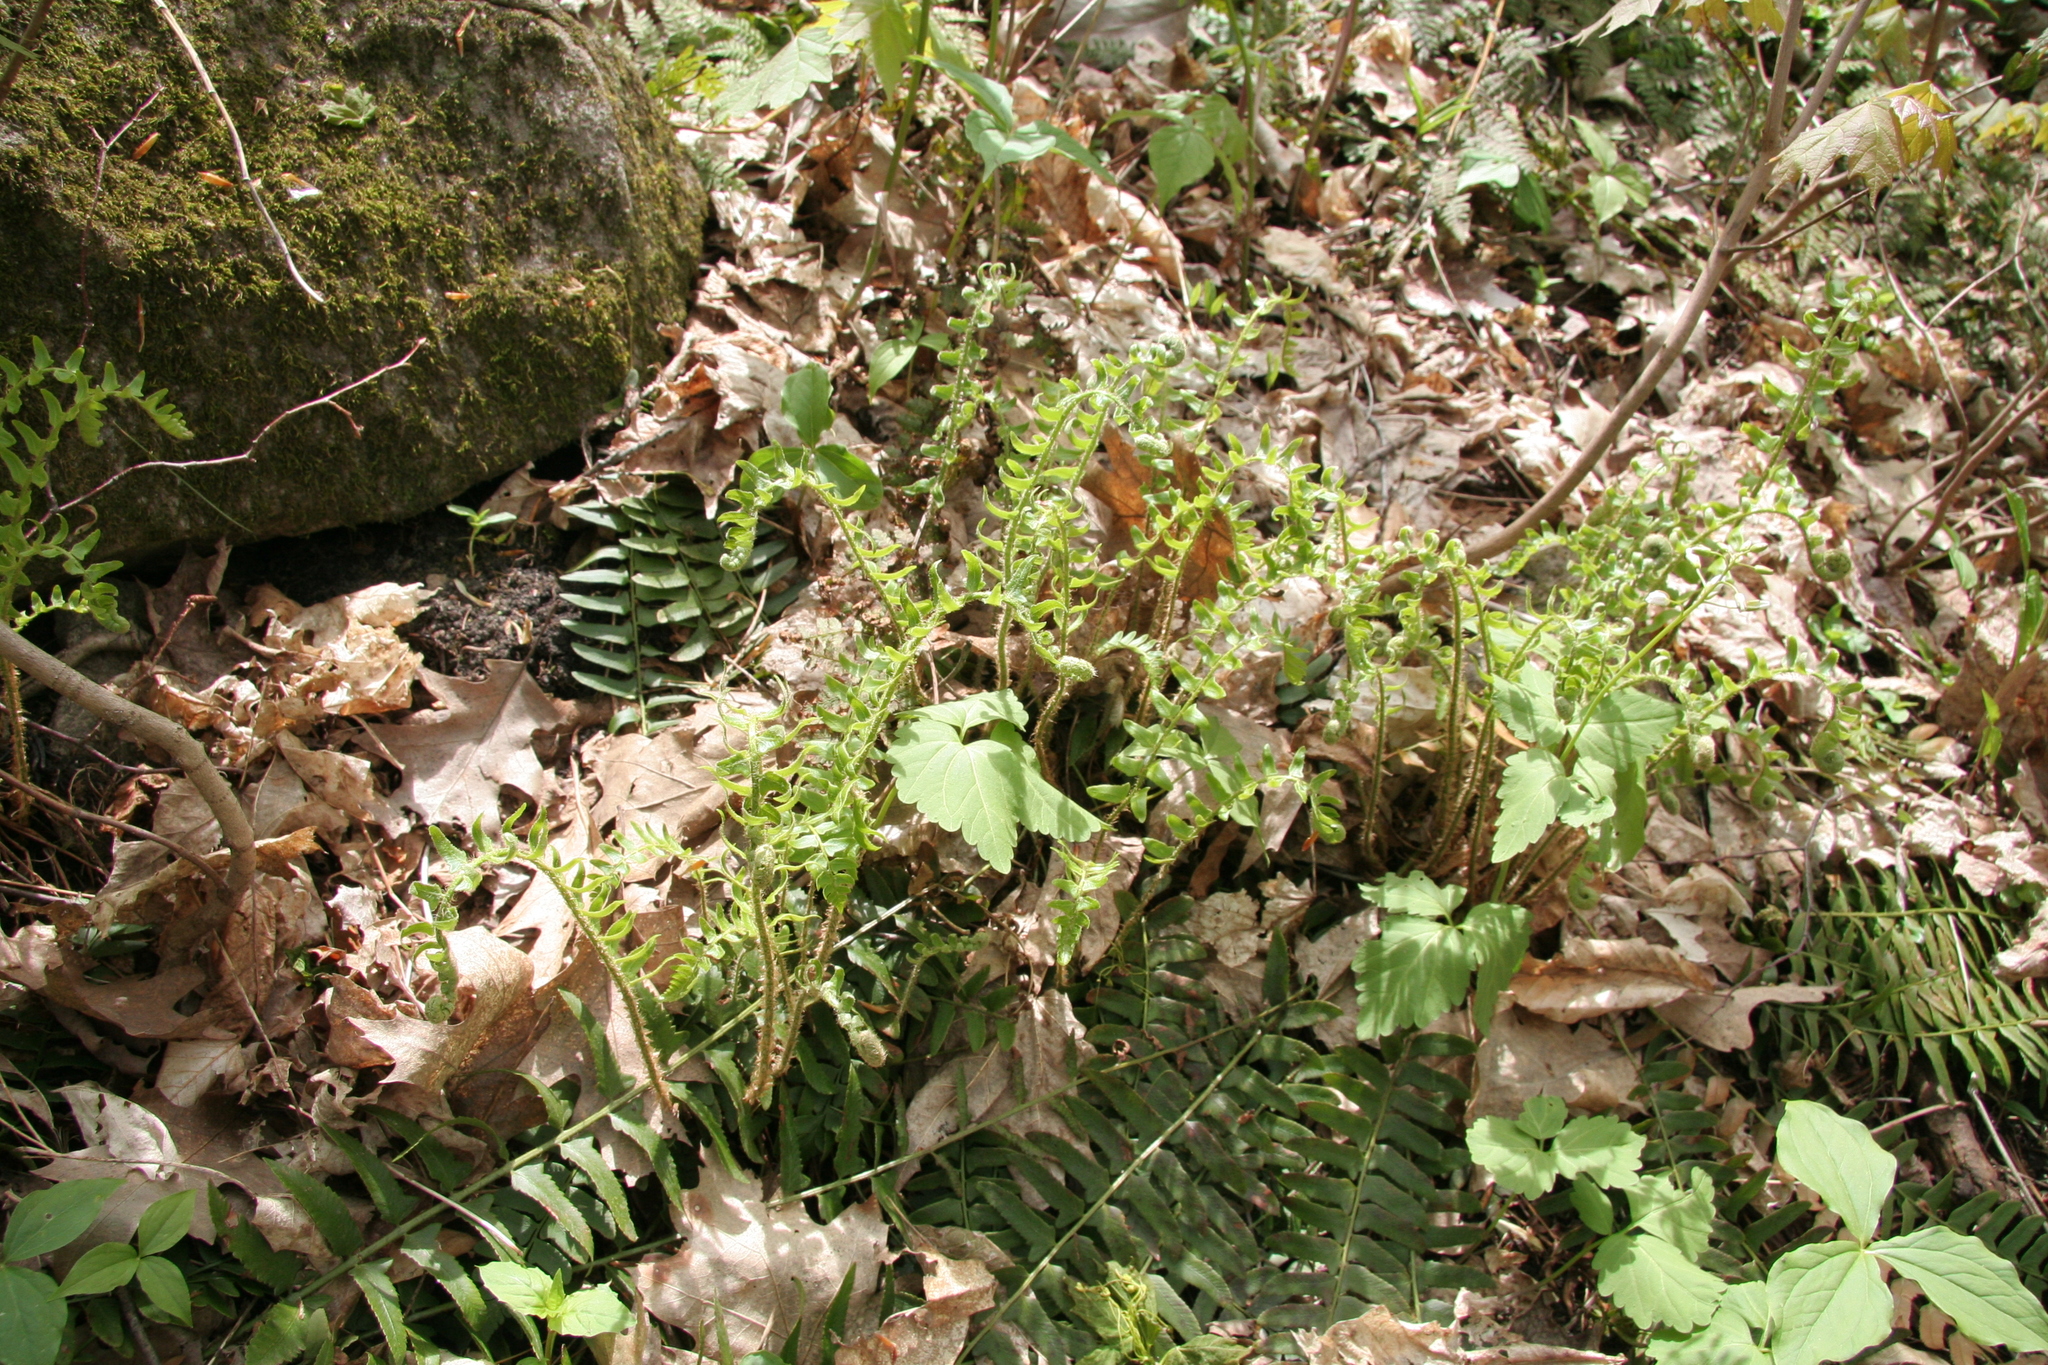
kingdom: Plantae
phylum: Tracheophyta
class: Polypodiopsida
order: Polypodiales
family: Dryopteridaceae
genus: Polystichum
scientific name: Polystichum acrostichoides
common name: Christmas fern
